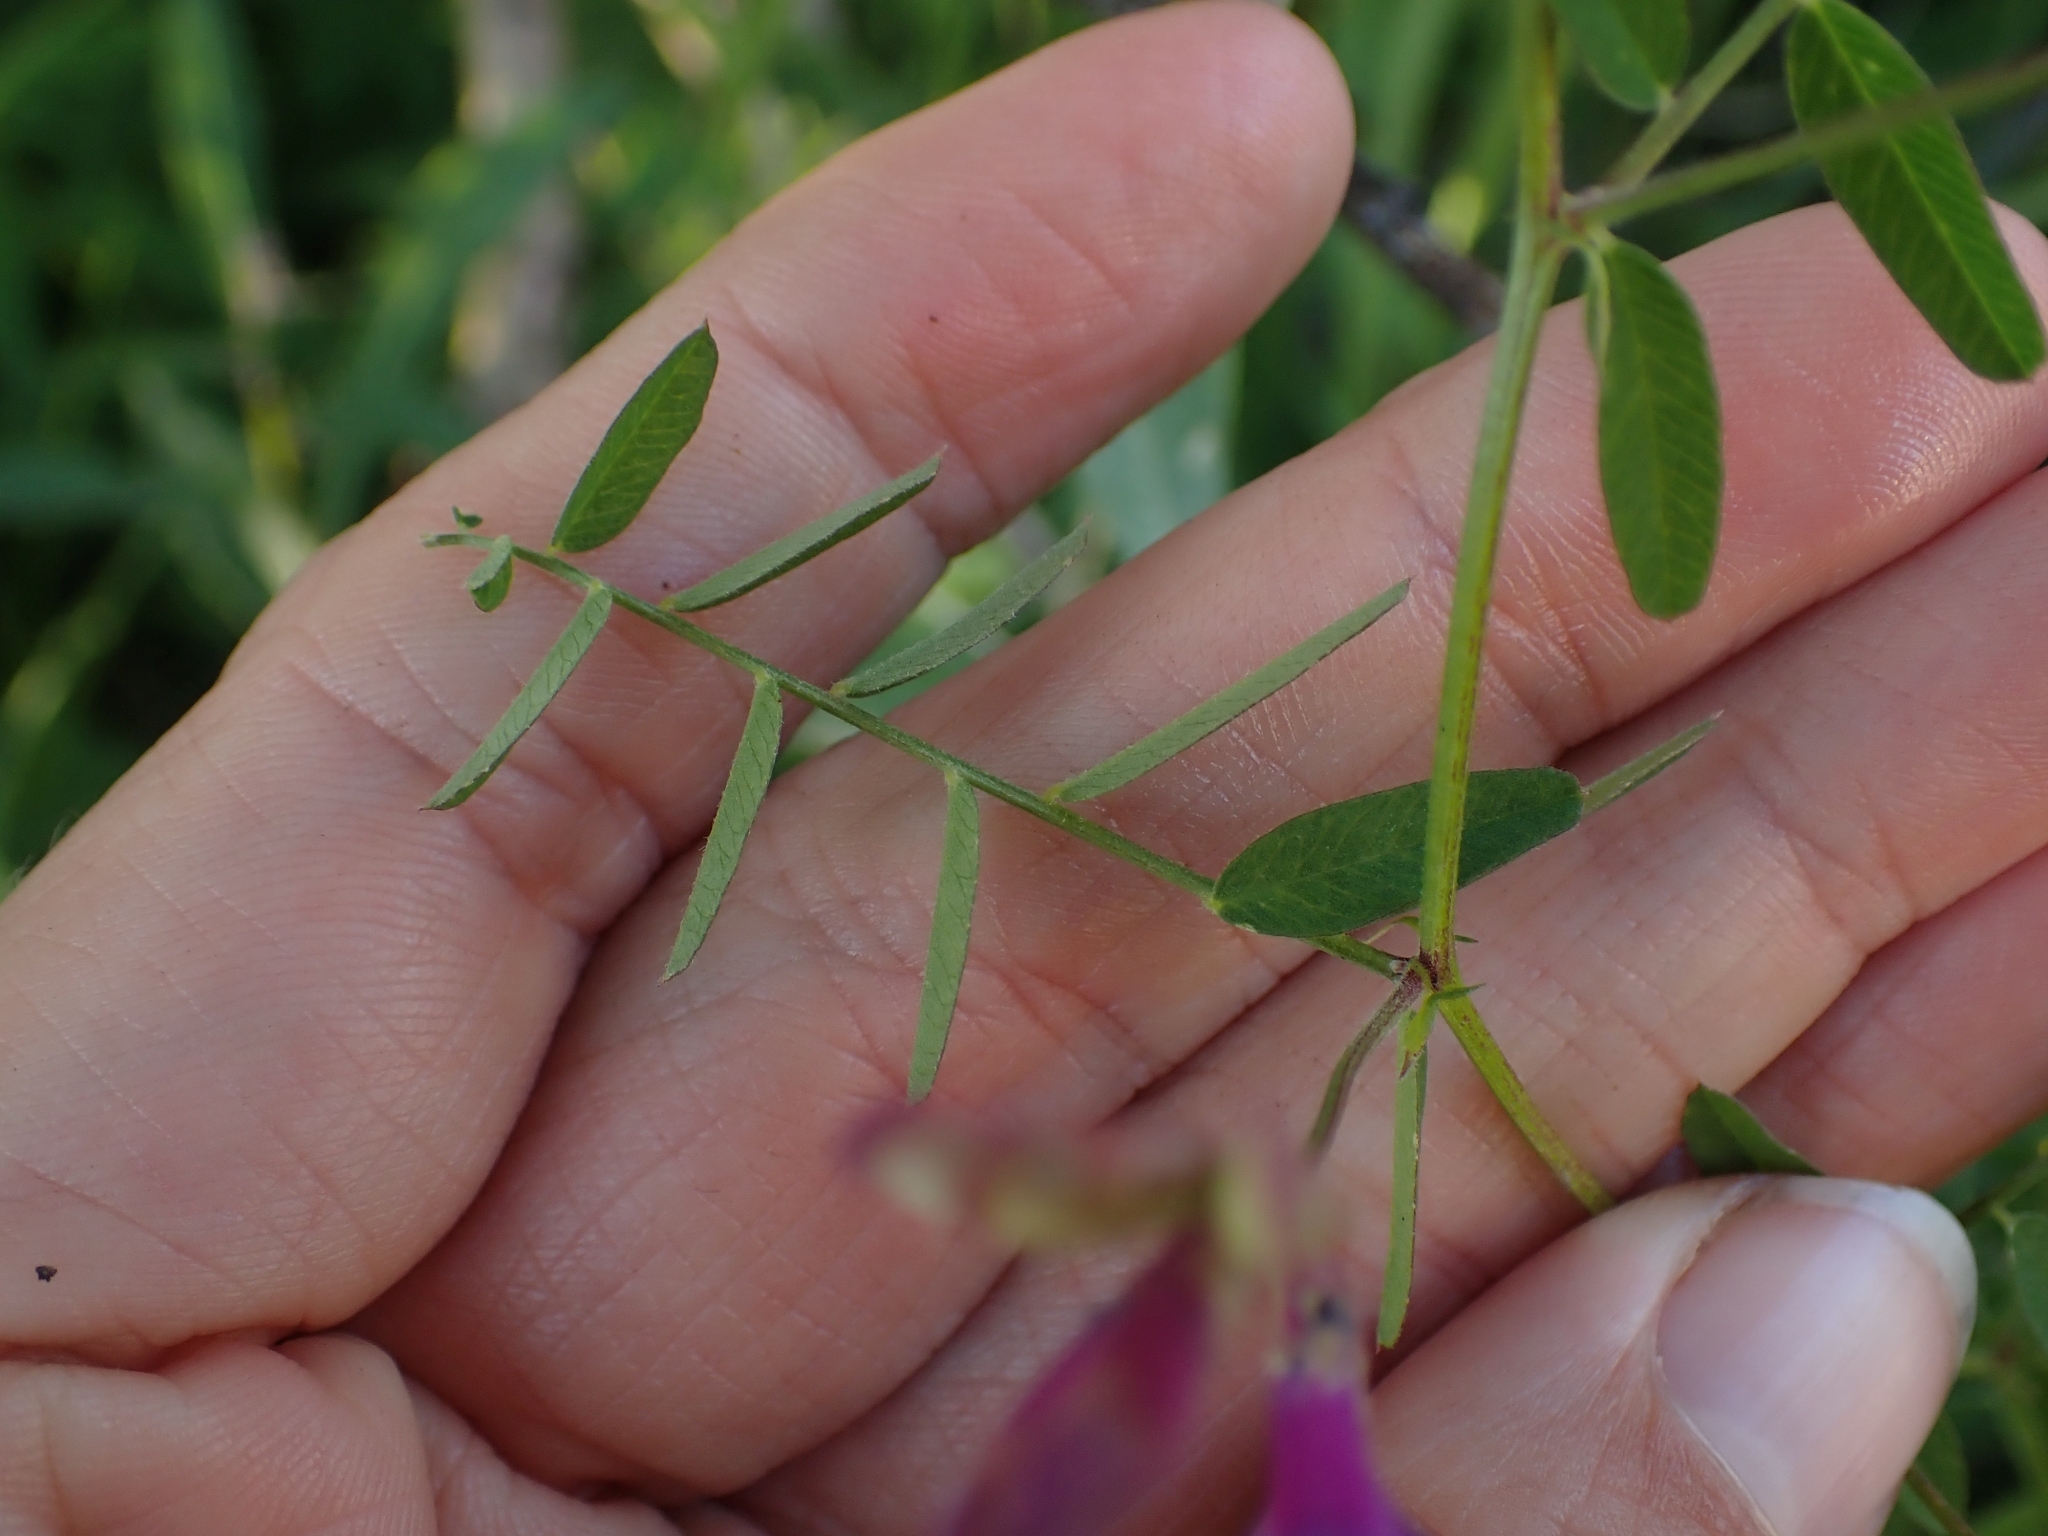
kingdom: Plantae
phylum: Tracheophyta
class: Magnoliopsida
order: Fabales
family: Fabaceae
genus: Vicia
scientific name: Vicia americana
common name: American vetch
